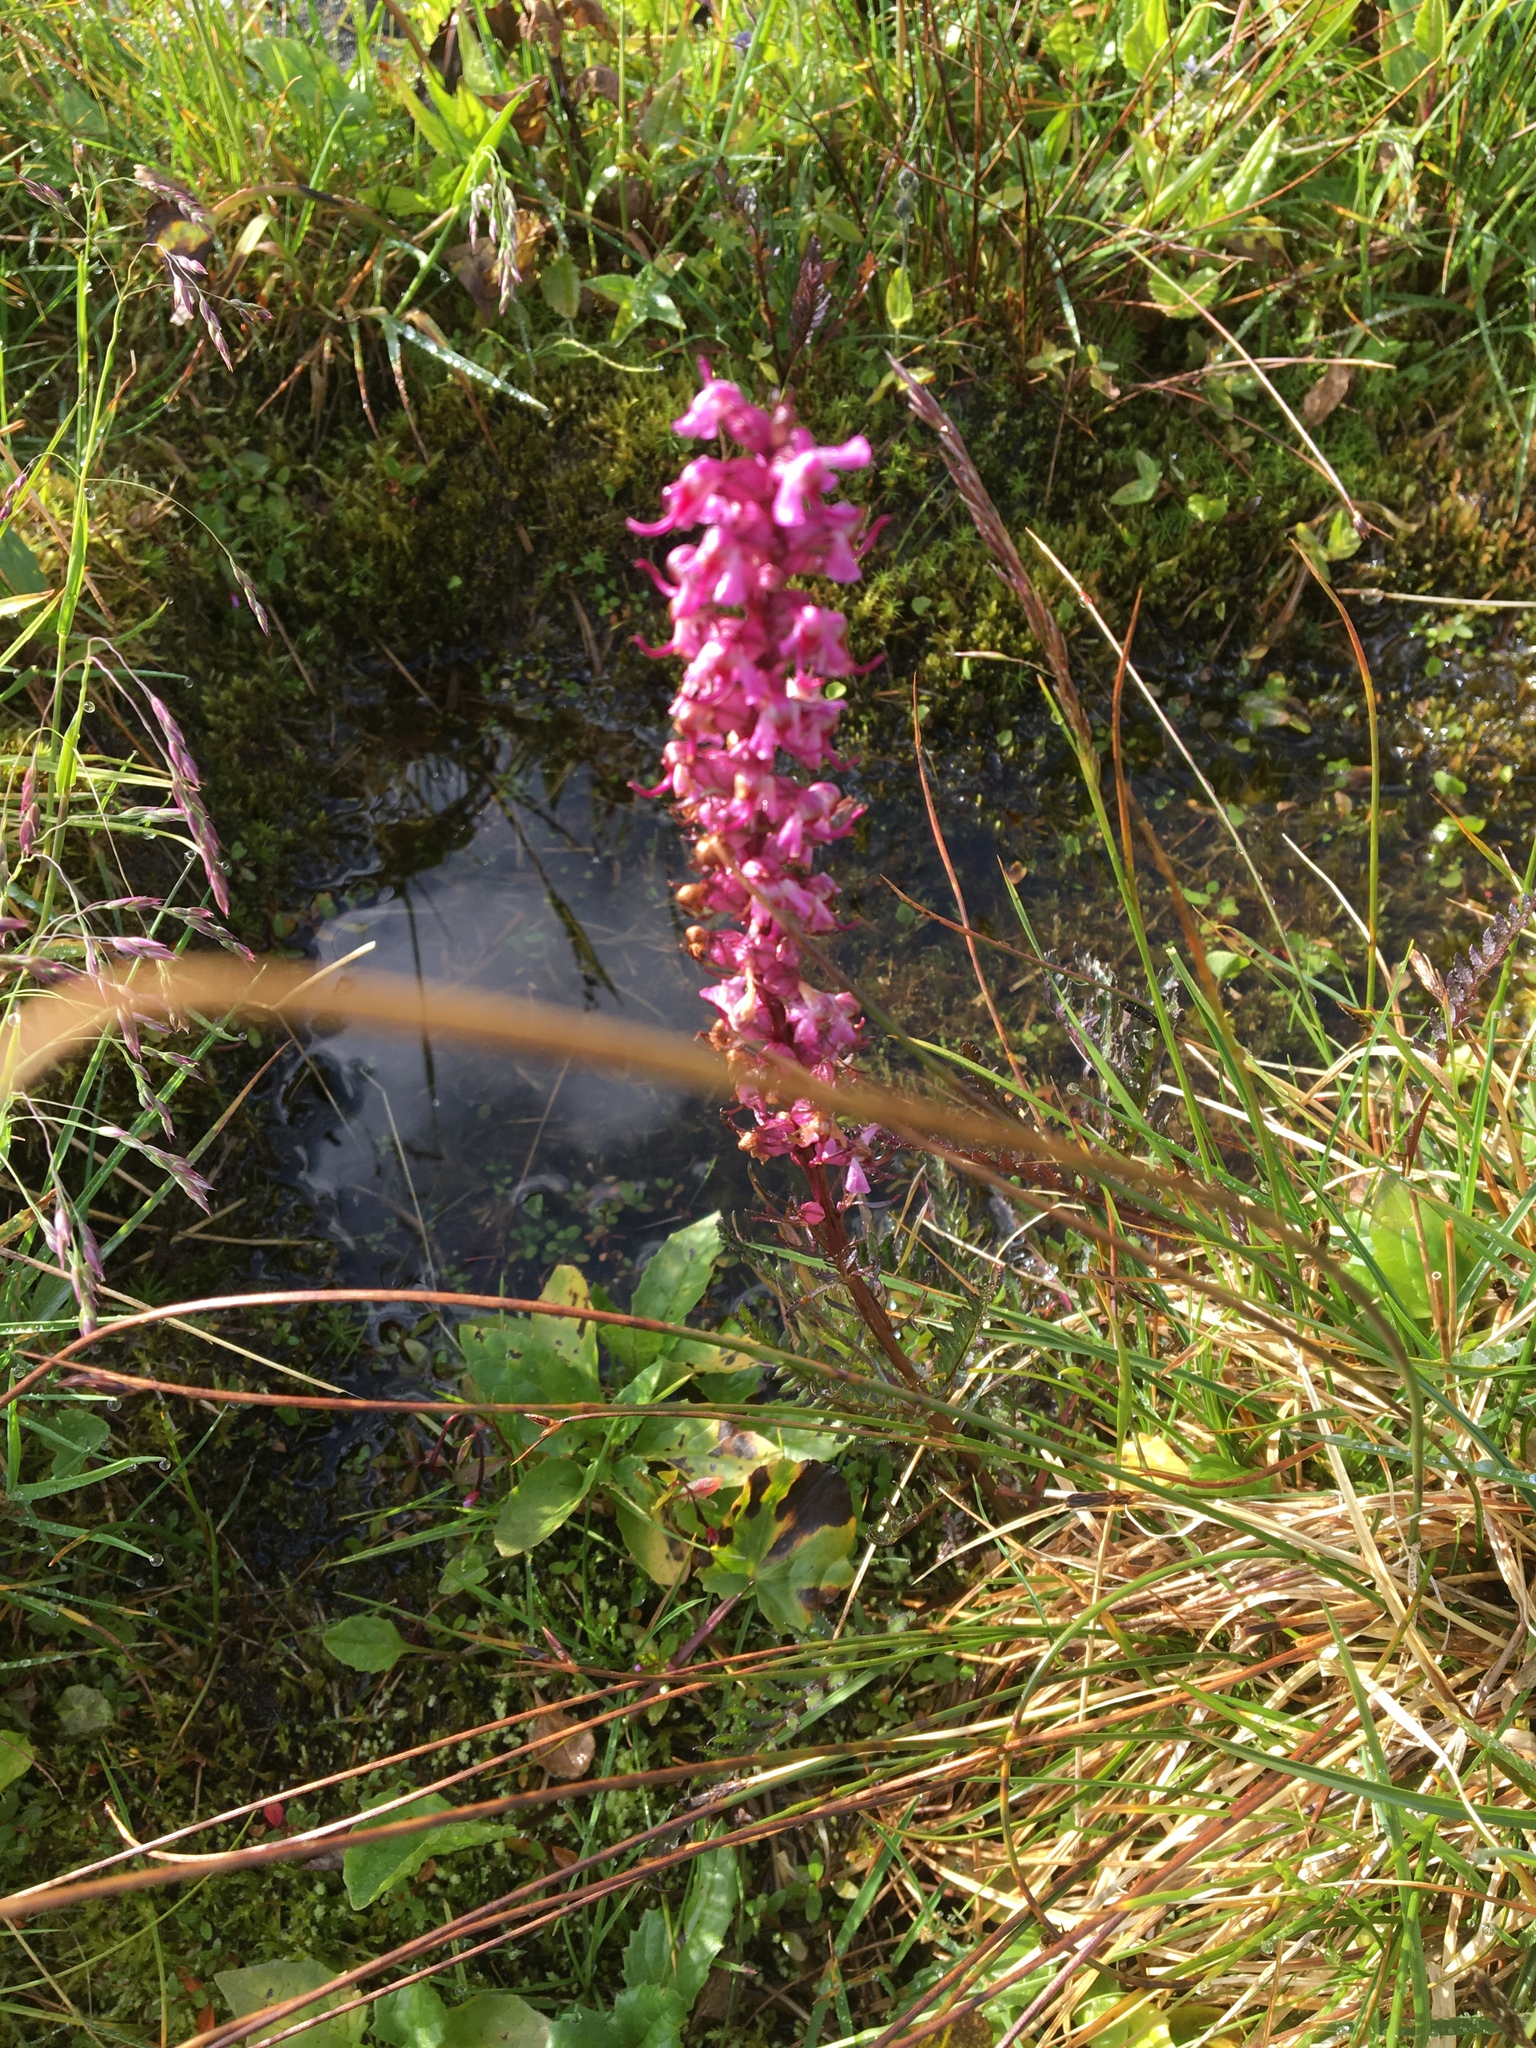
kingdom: Plantae
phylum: Tracheophyta
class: Magnoliopsida
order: Lamiales
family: Orobanchaceae
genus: Pedicularis
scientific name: Pedicularis groenlandica
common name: Elephant's-head
